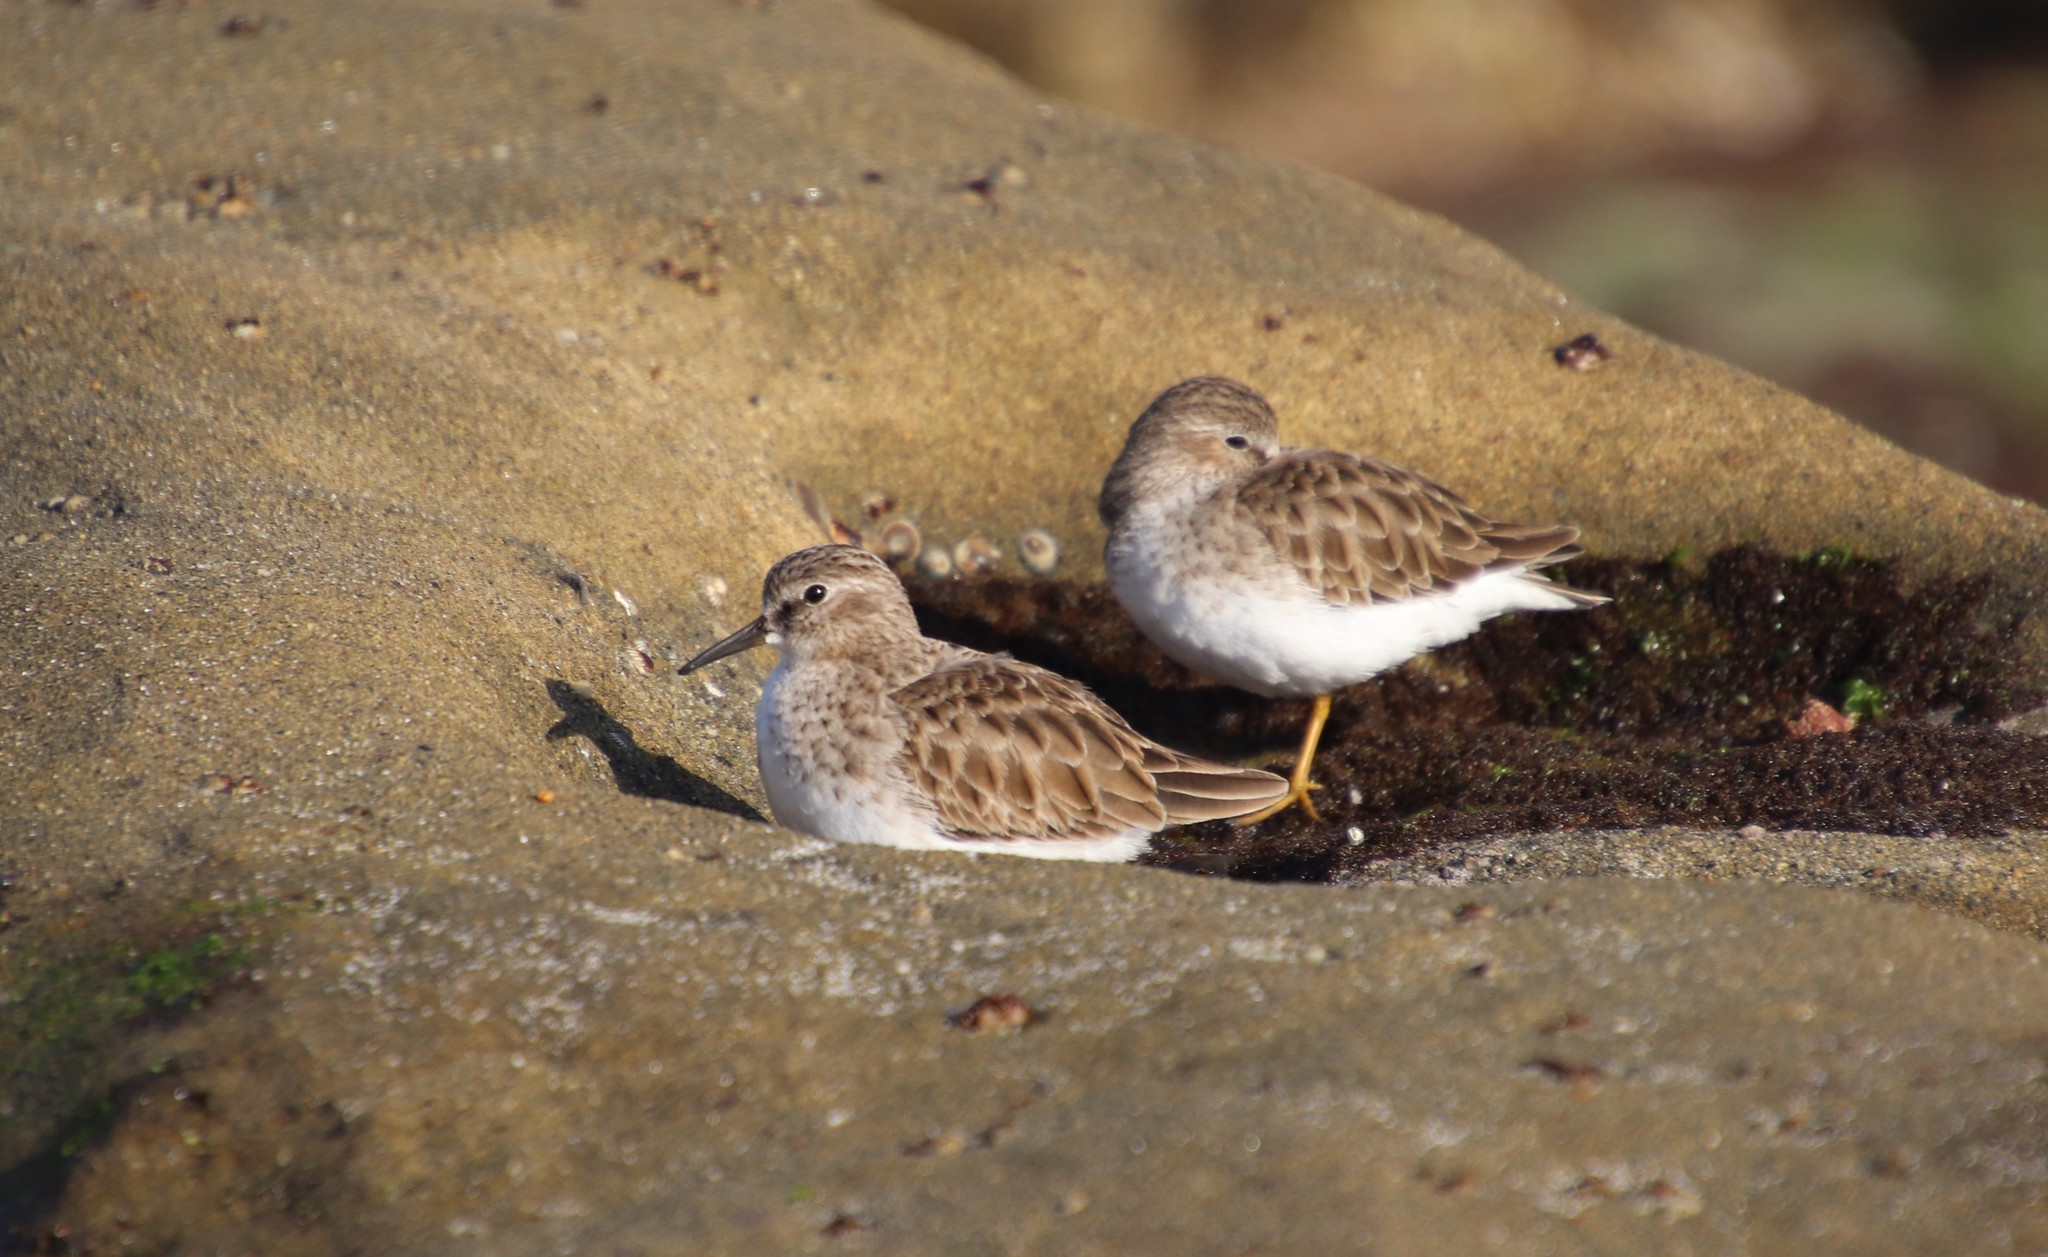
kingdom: Animalia
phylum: Chordata
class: Aves
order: Charadriiformes
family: Scolopacidae
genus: Calidris
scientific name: Calidris minutilla
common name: Least sandpiper
